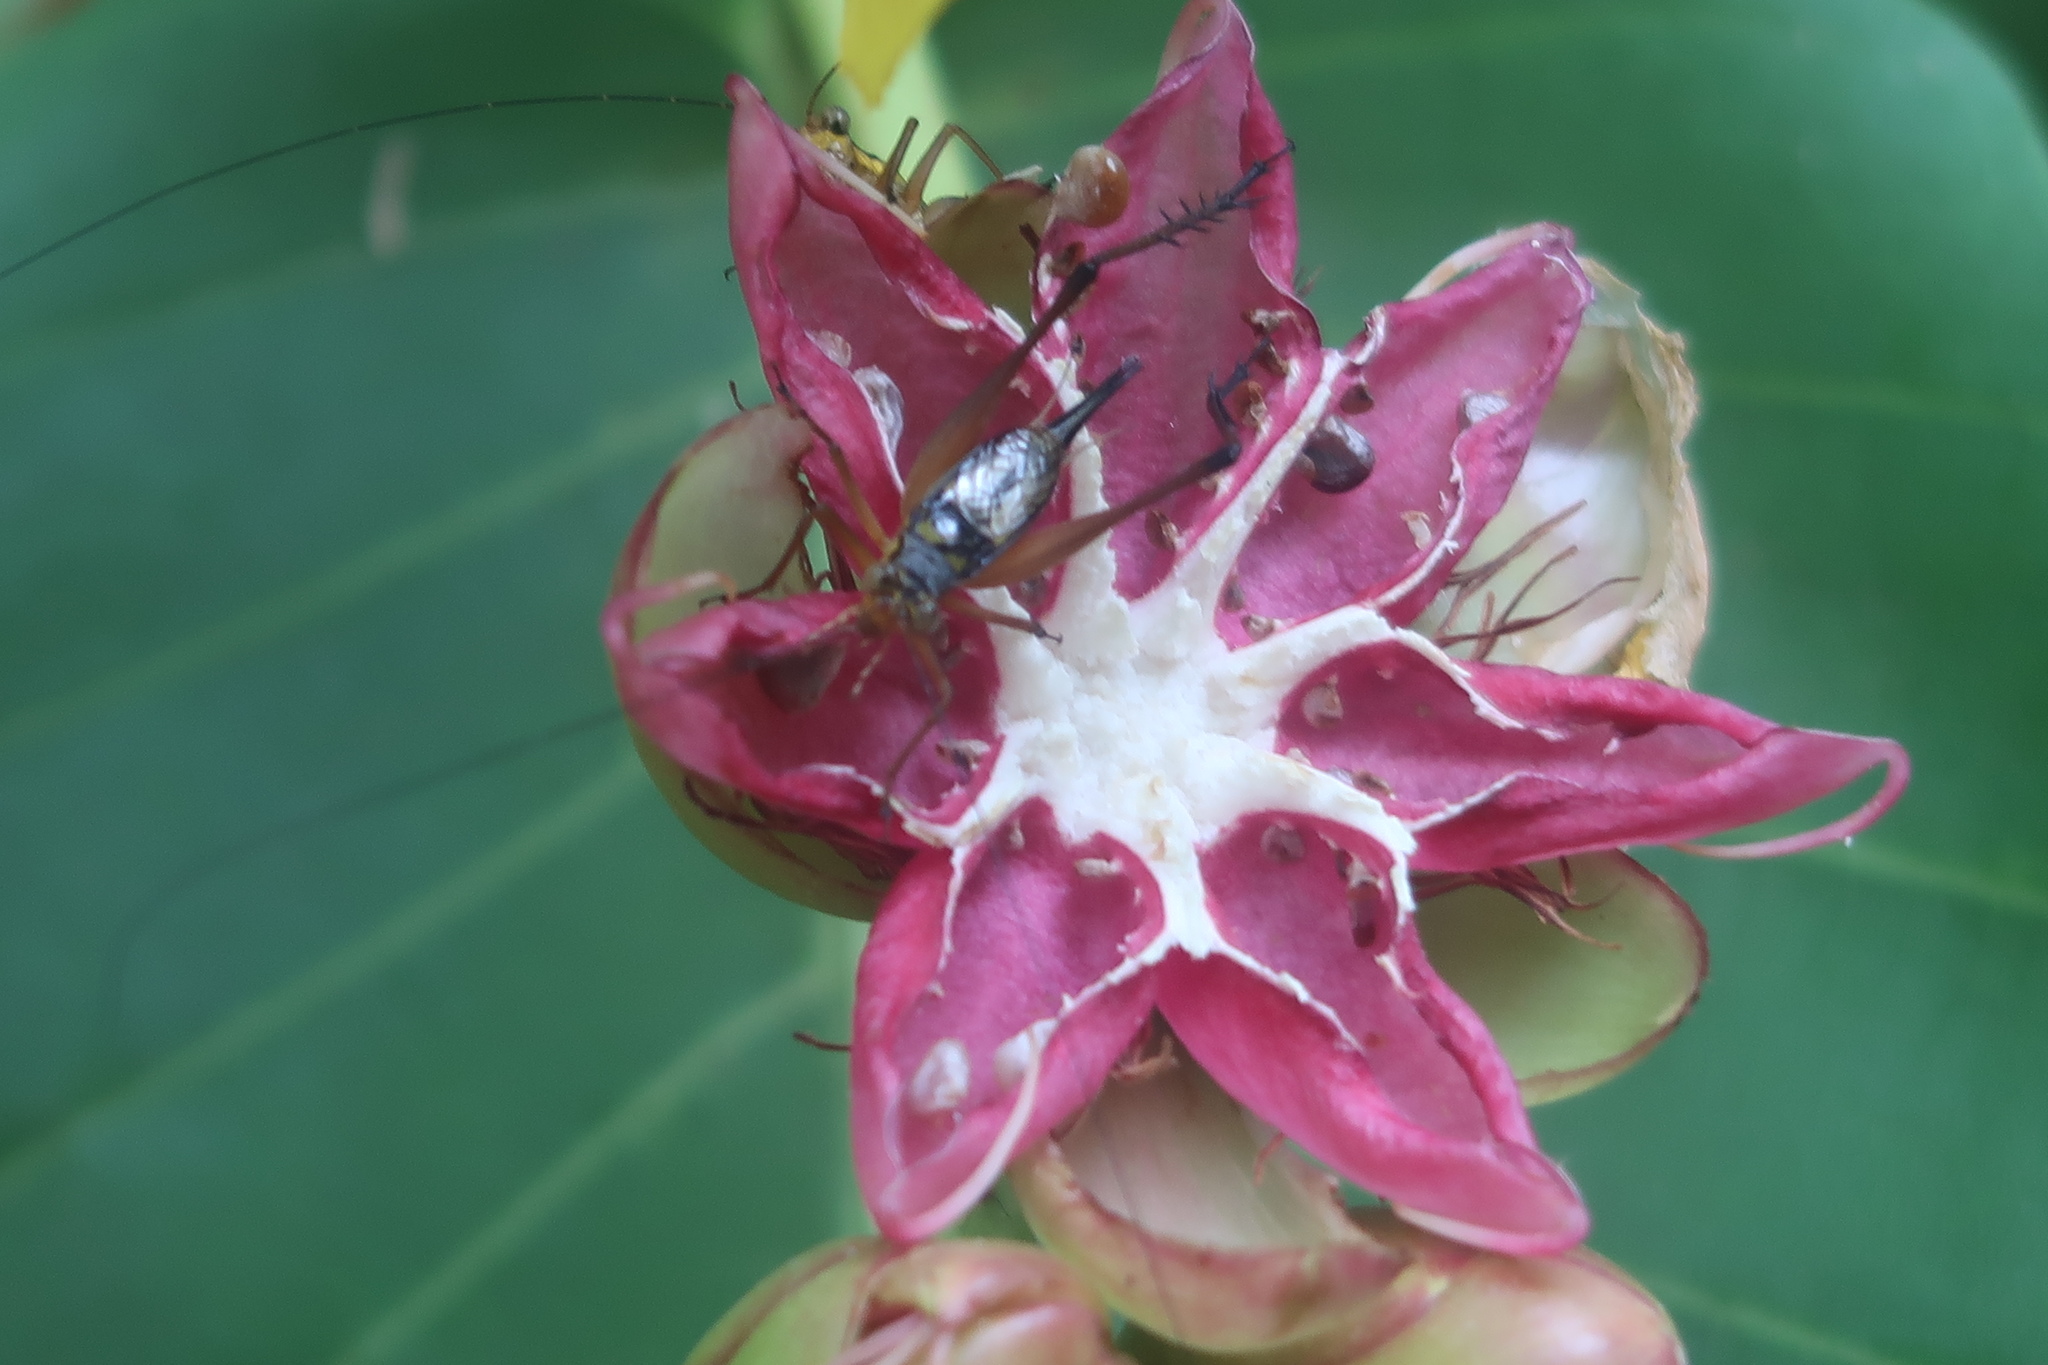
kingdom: Animalia
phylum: Arthropoda
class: Insecta
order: Orthoptera
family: Gryllidae
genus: Nisitrus
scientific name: Nisitrus malaya
